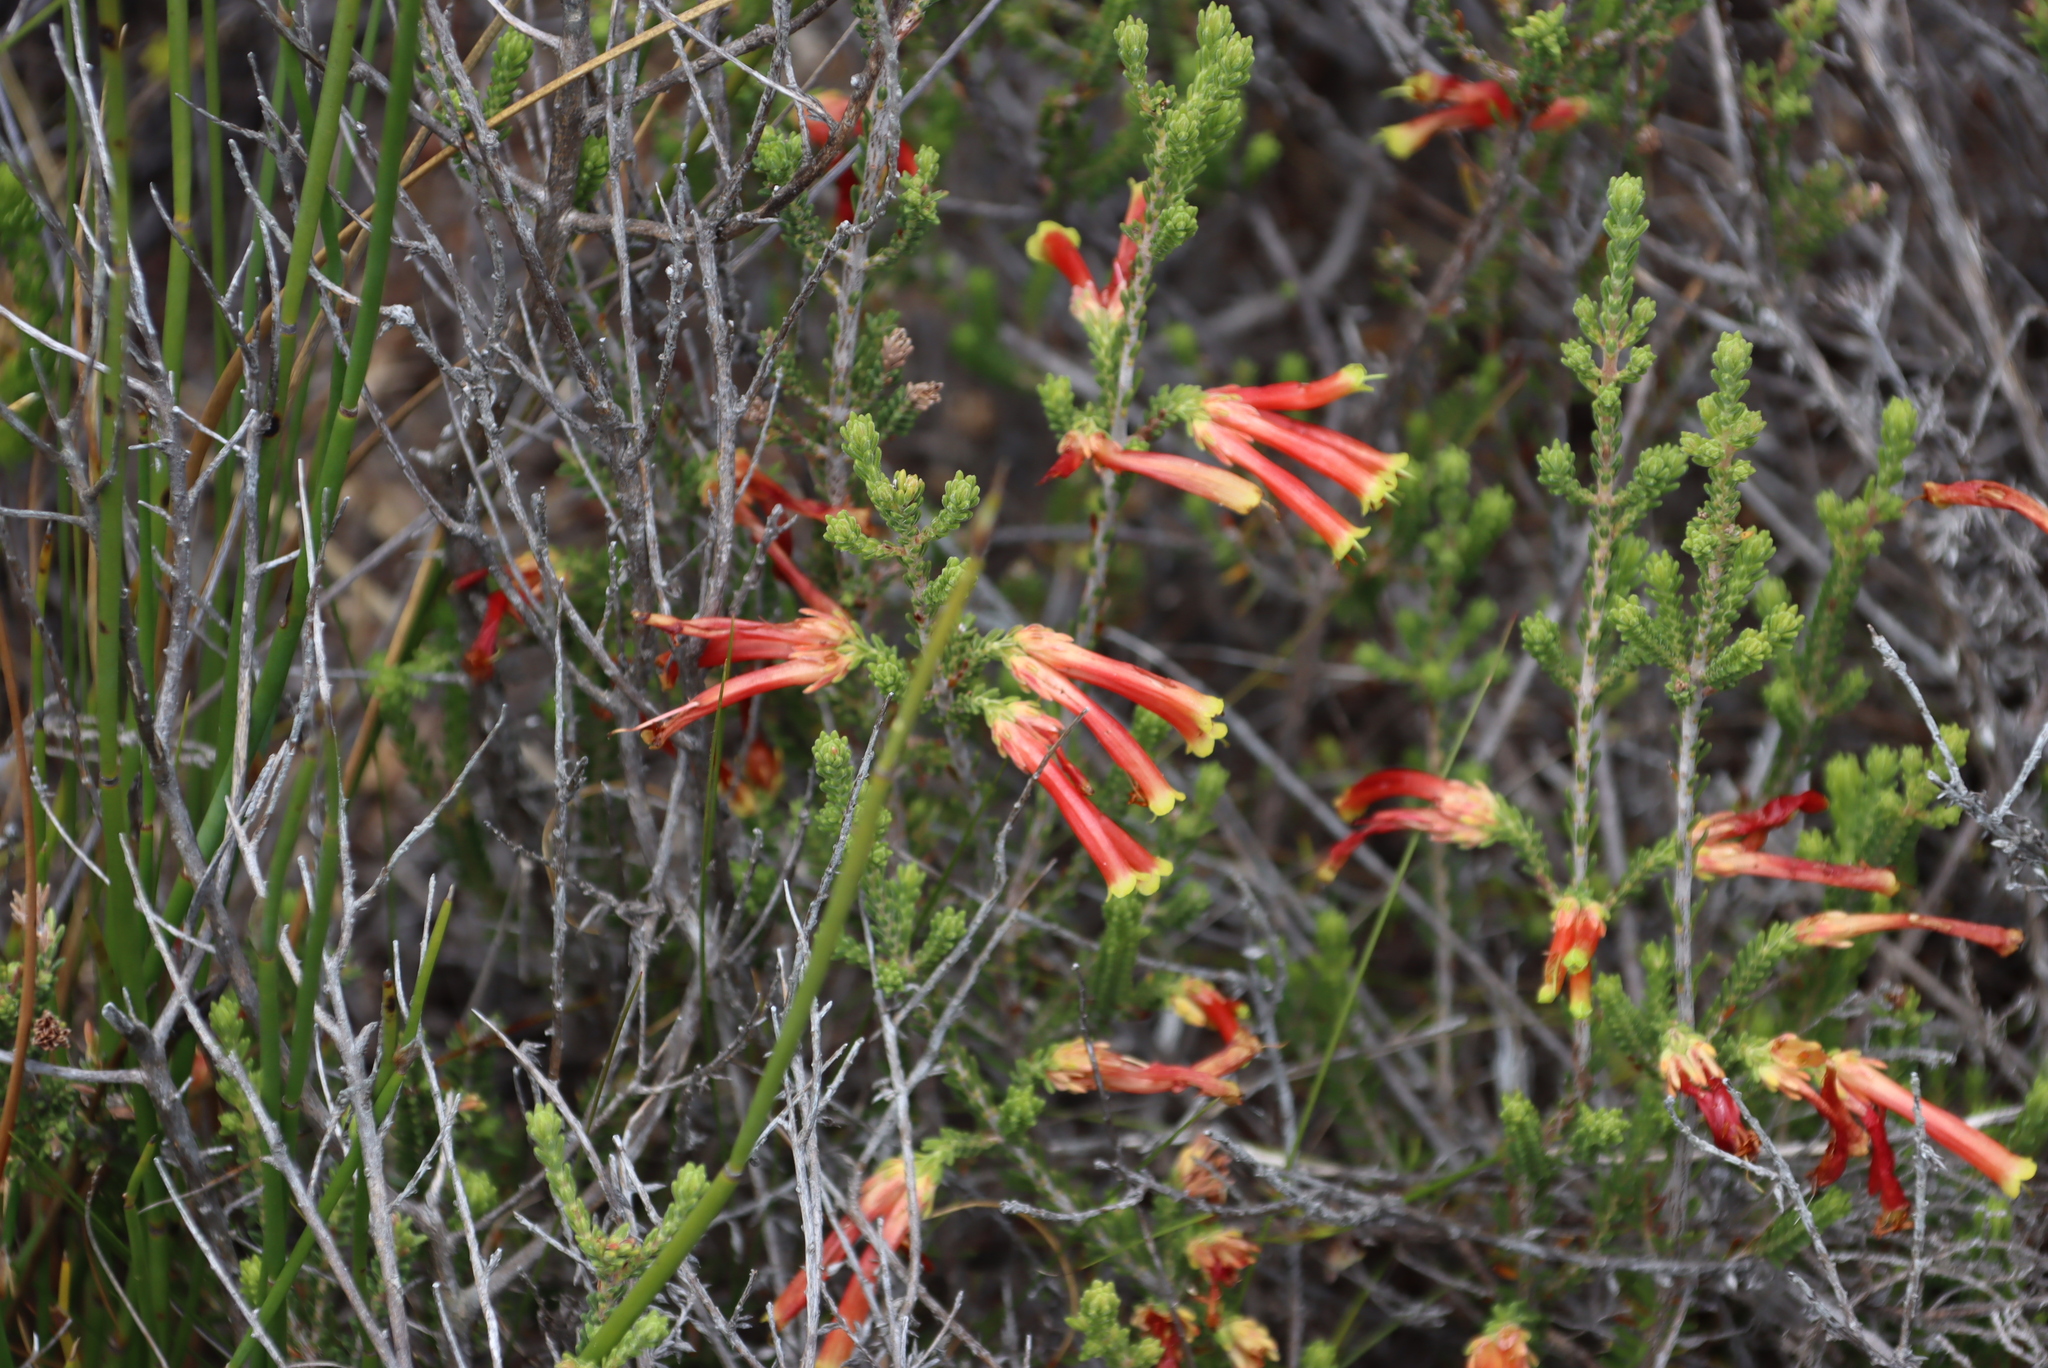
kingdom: Plantae
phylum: Tracheophyta
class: Magnoliopsida
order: Ericales
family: Ericaceae
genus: Erica
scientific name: Erica discolor
